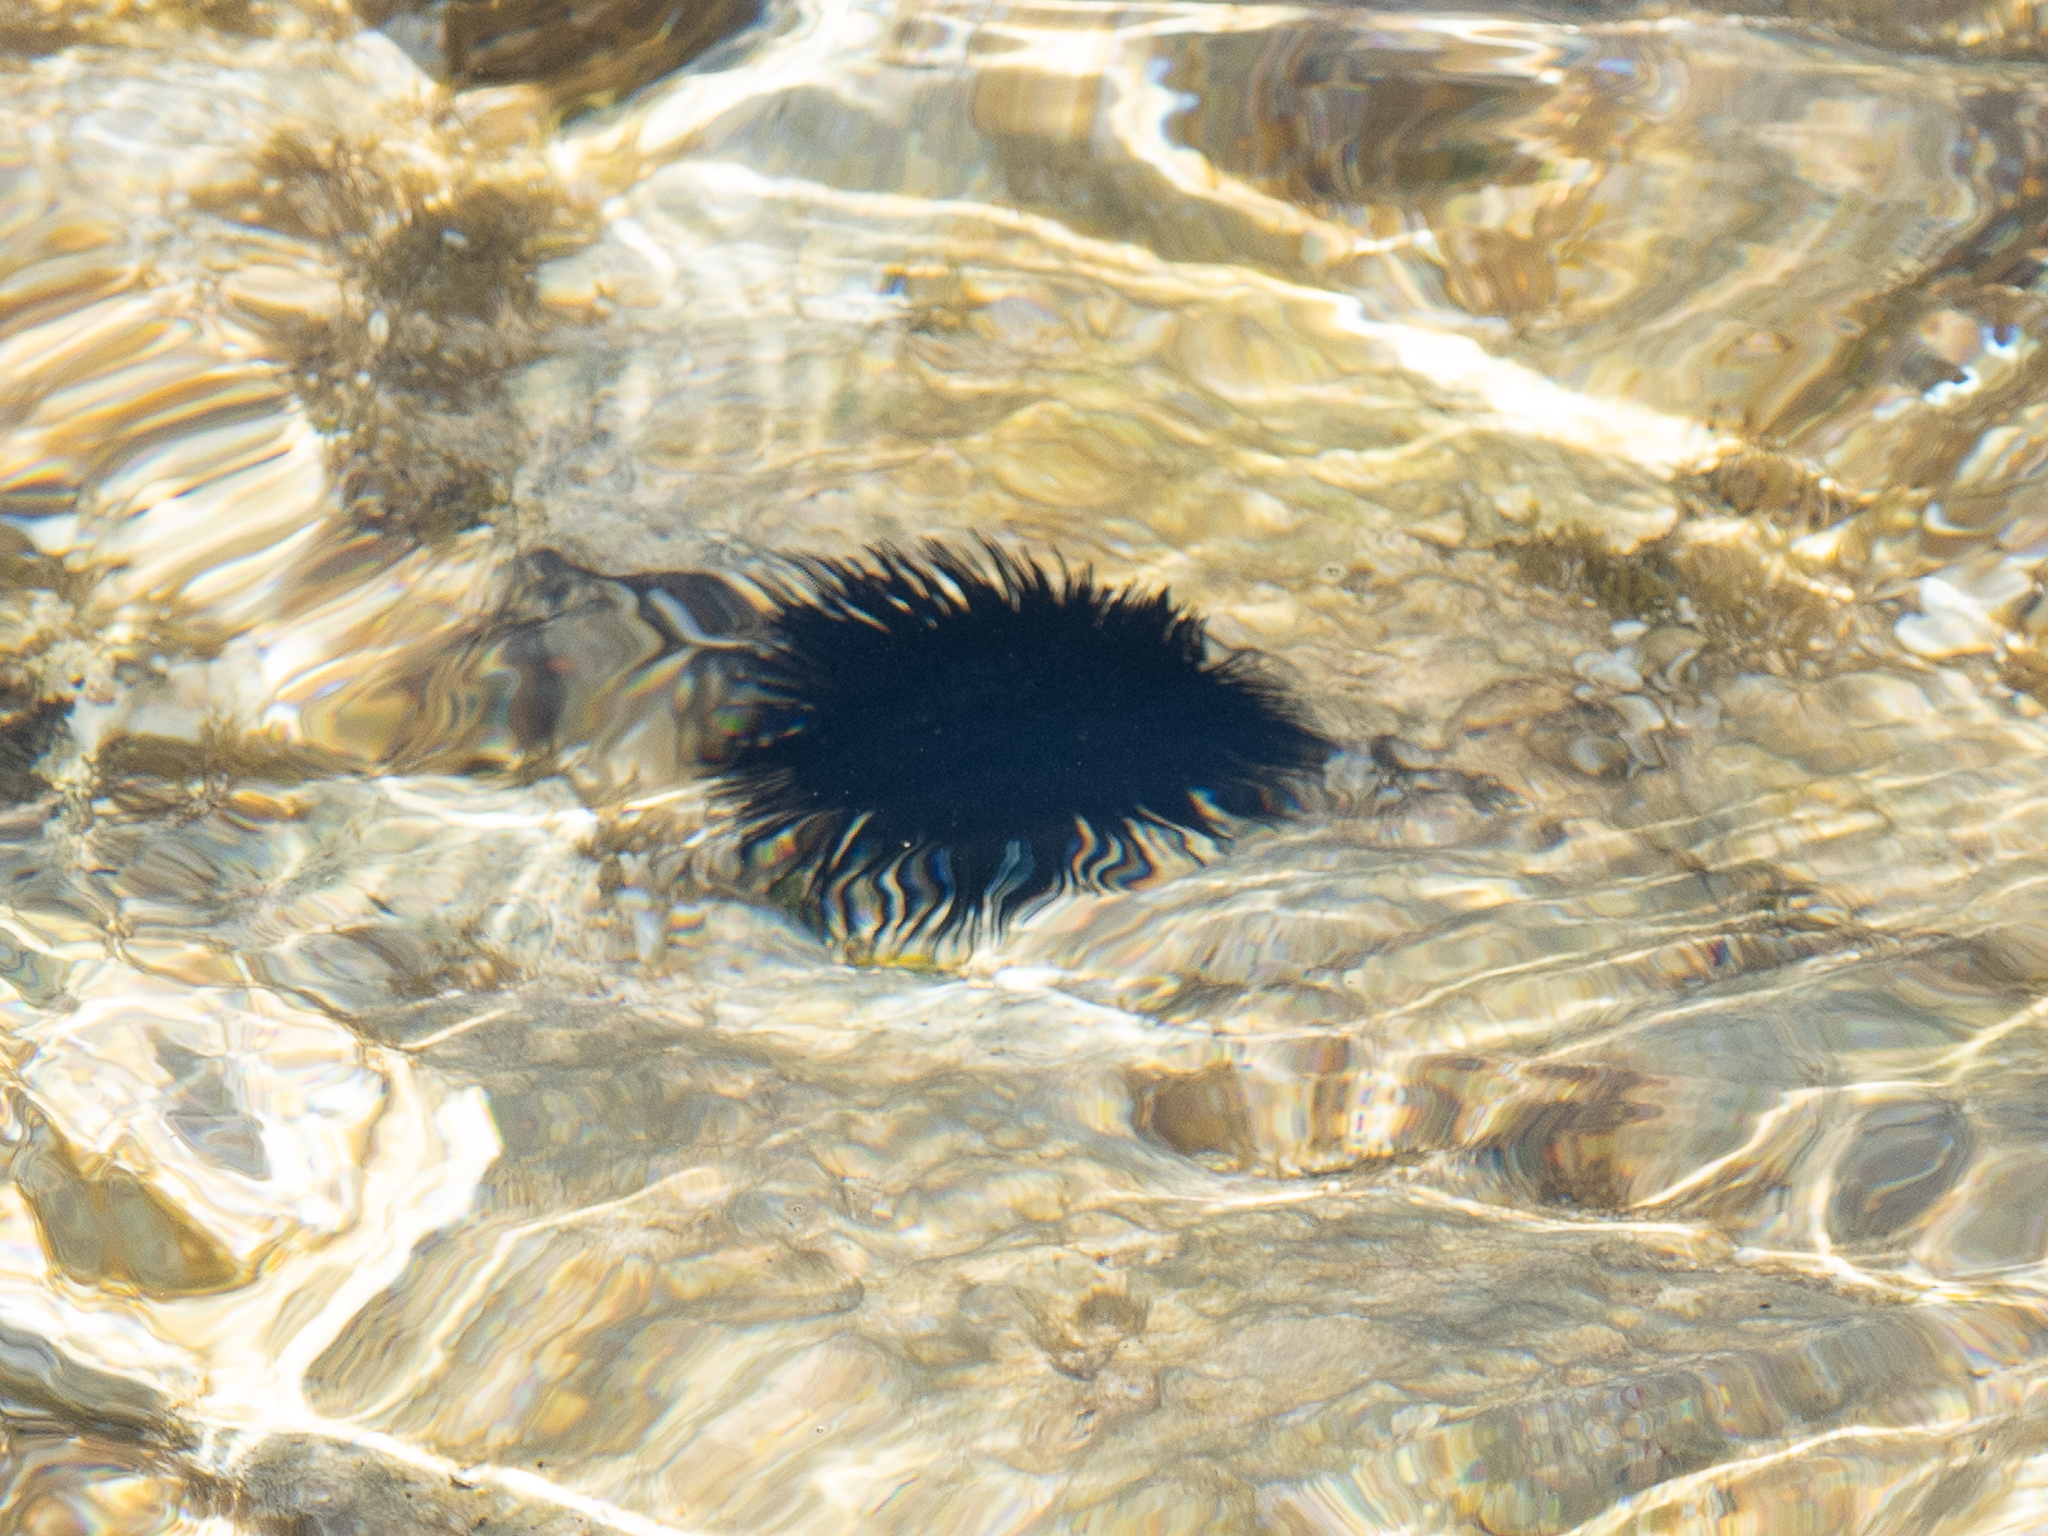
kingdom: Animalia
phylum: Echinodermata
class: Echinoidea
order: Arbacioida
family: Arbaciidae
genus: Arbacia
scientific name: Arbacia lixula
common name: Black sea urchin
